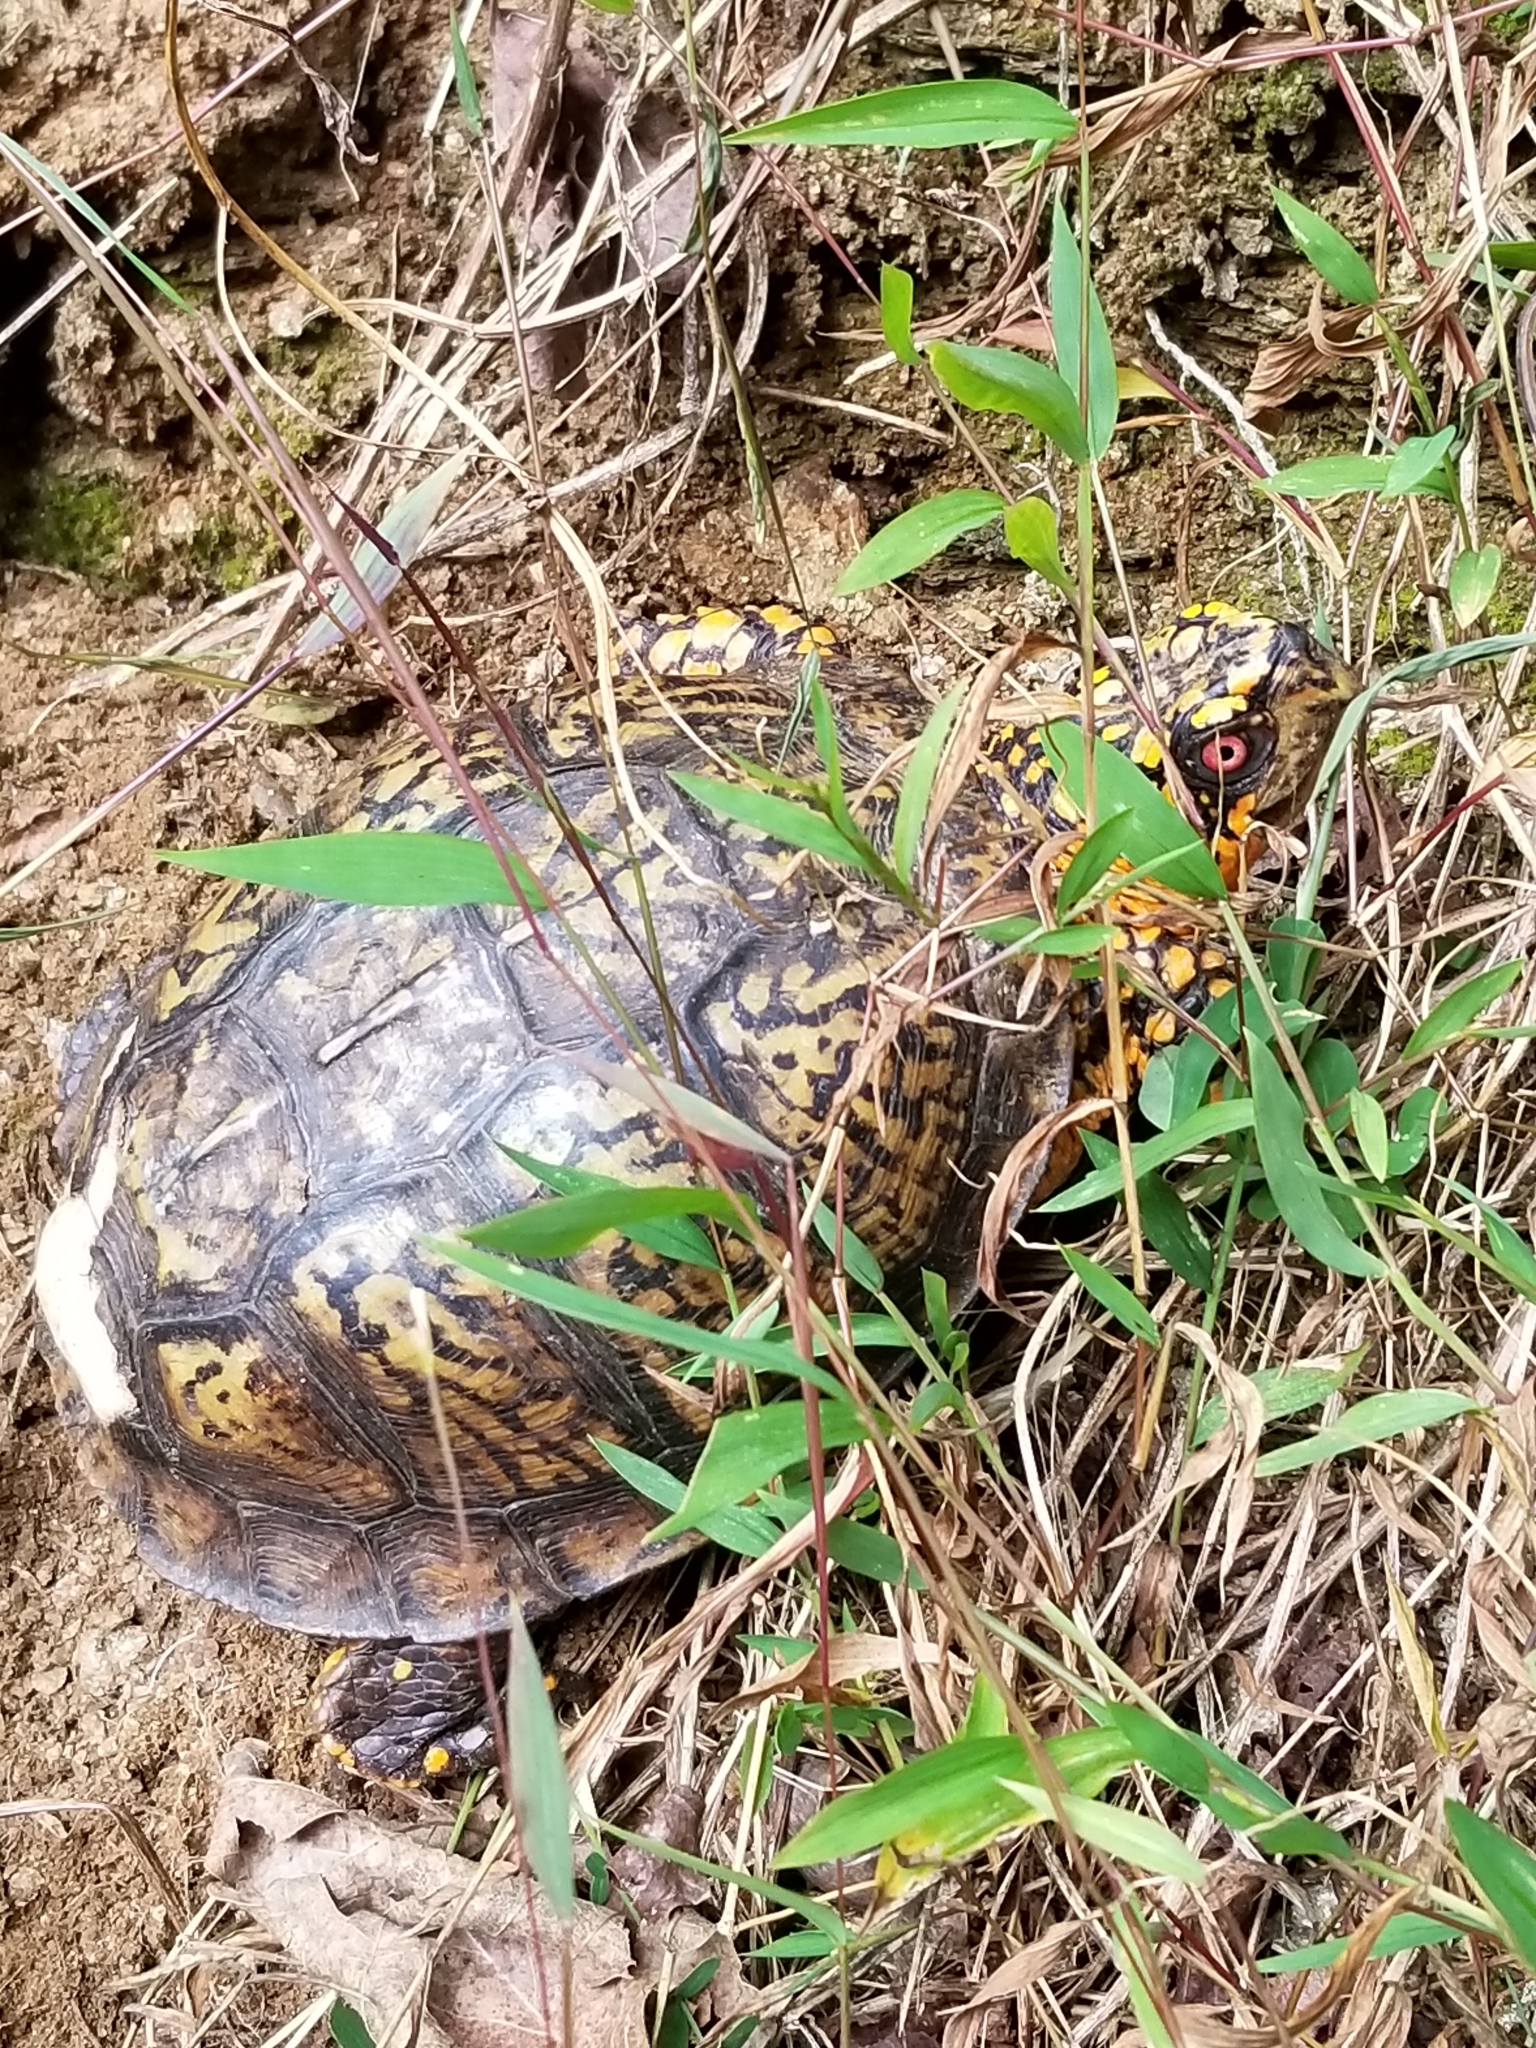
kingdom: Animalia
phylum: Chordata
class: Testudines
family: Emydidae
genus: Terrapene
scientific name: Terrapene carolina
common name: Common box turtle
